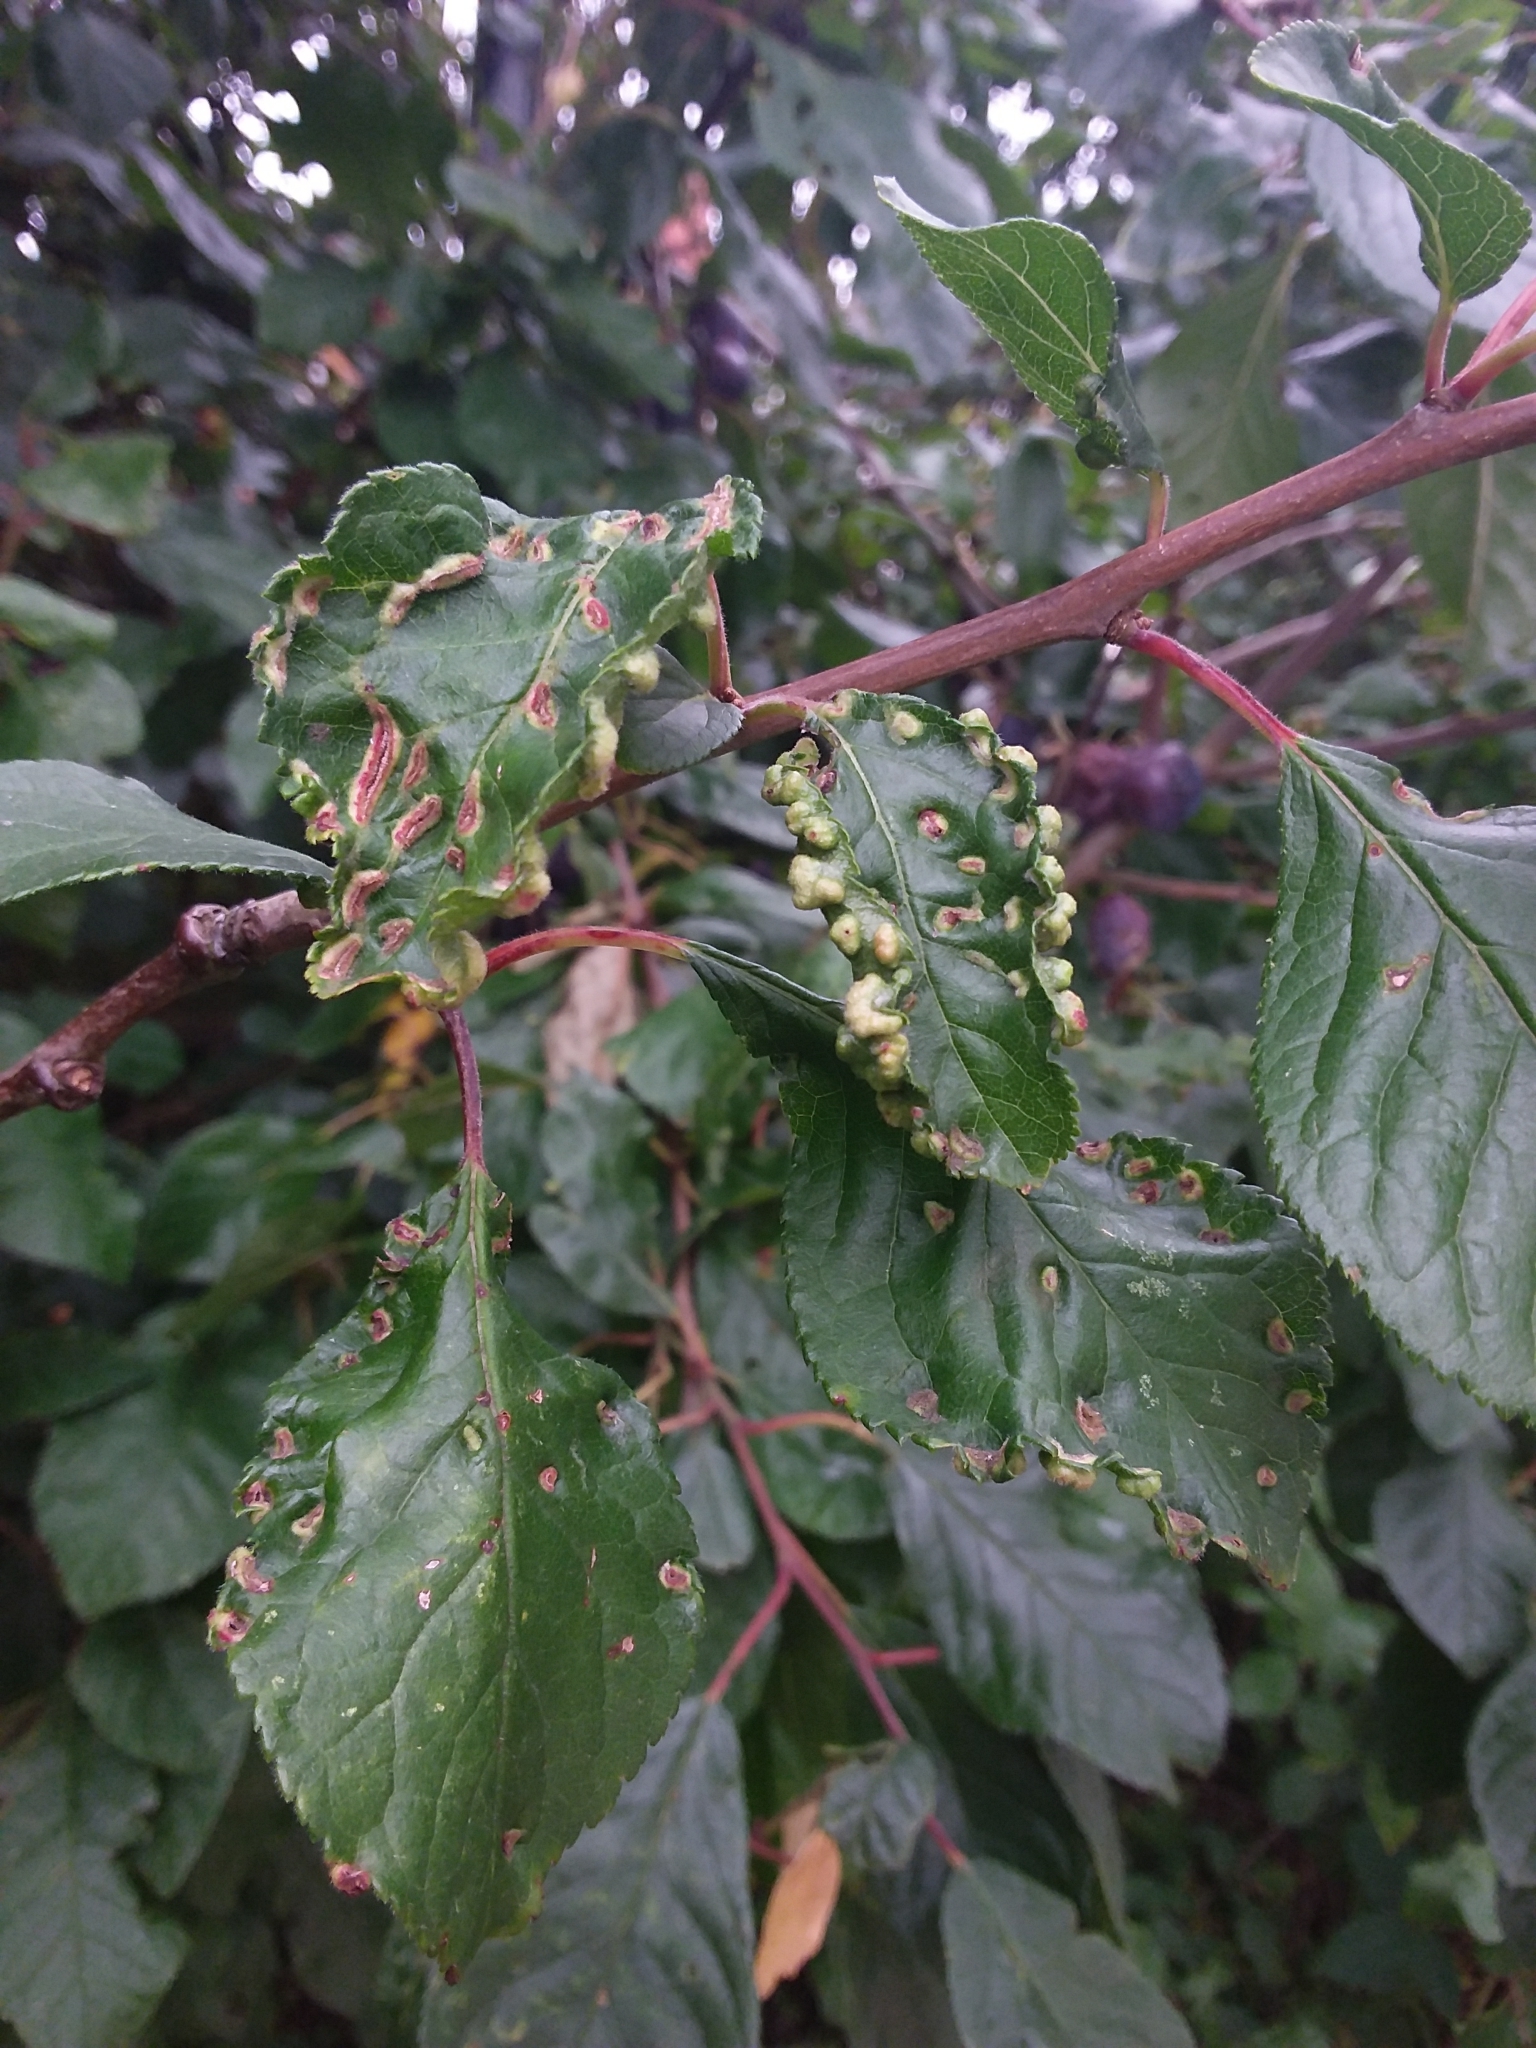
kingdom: Animalia
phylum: Arthropoda
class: Arachnida
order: Trombidiformes
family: Eriophyidae
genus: Eriophyes
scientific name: Eriophyes similis
